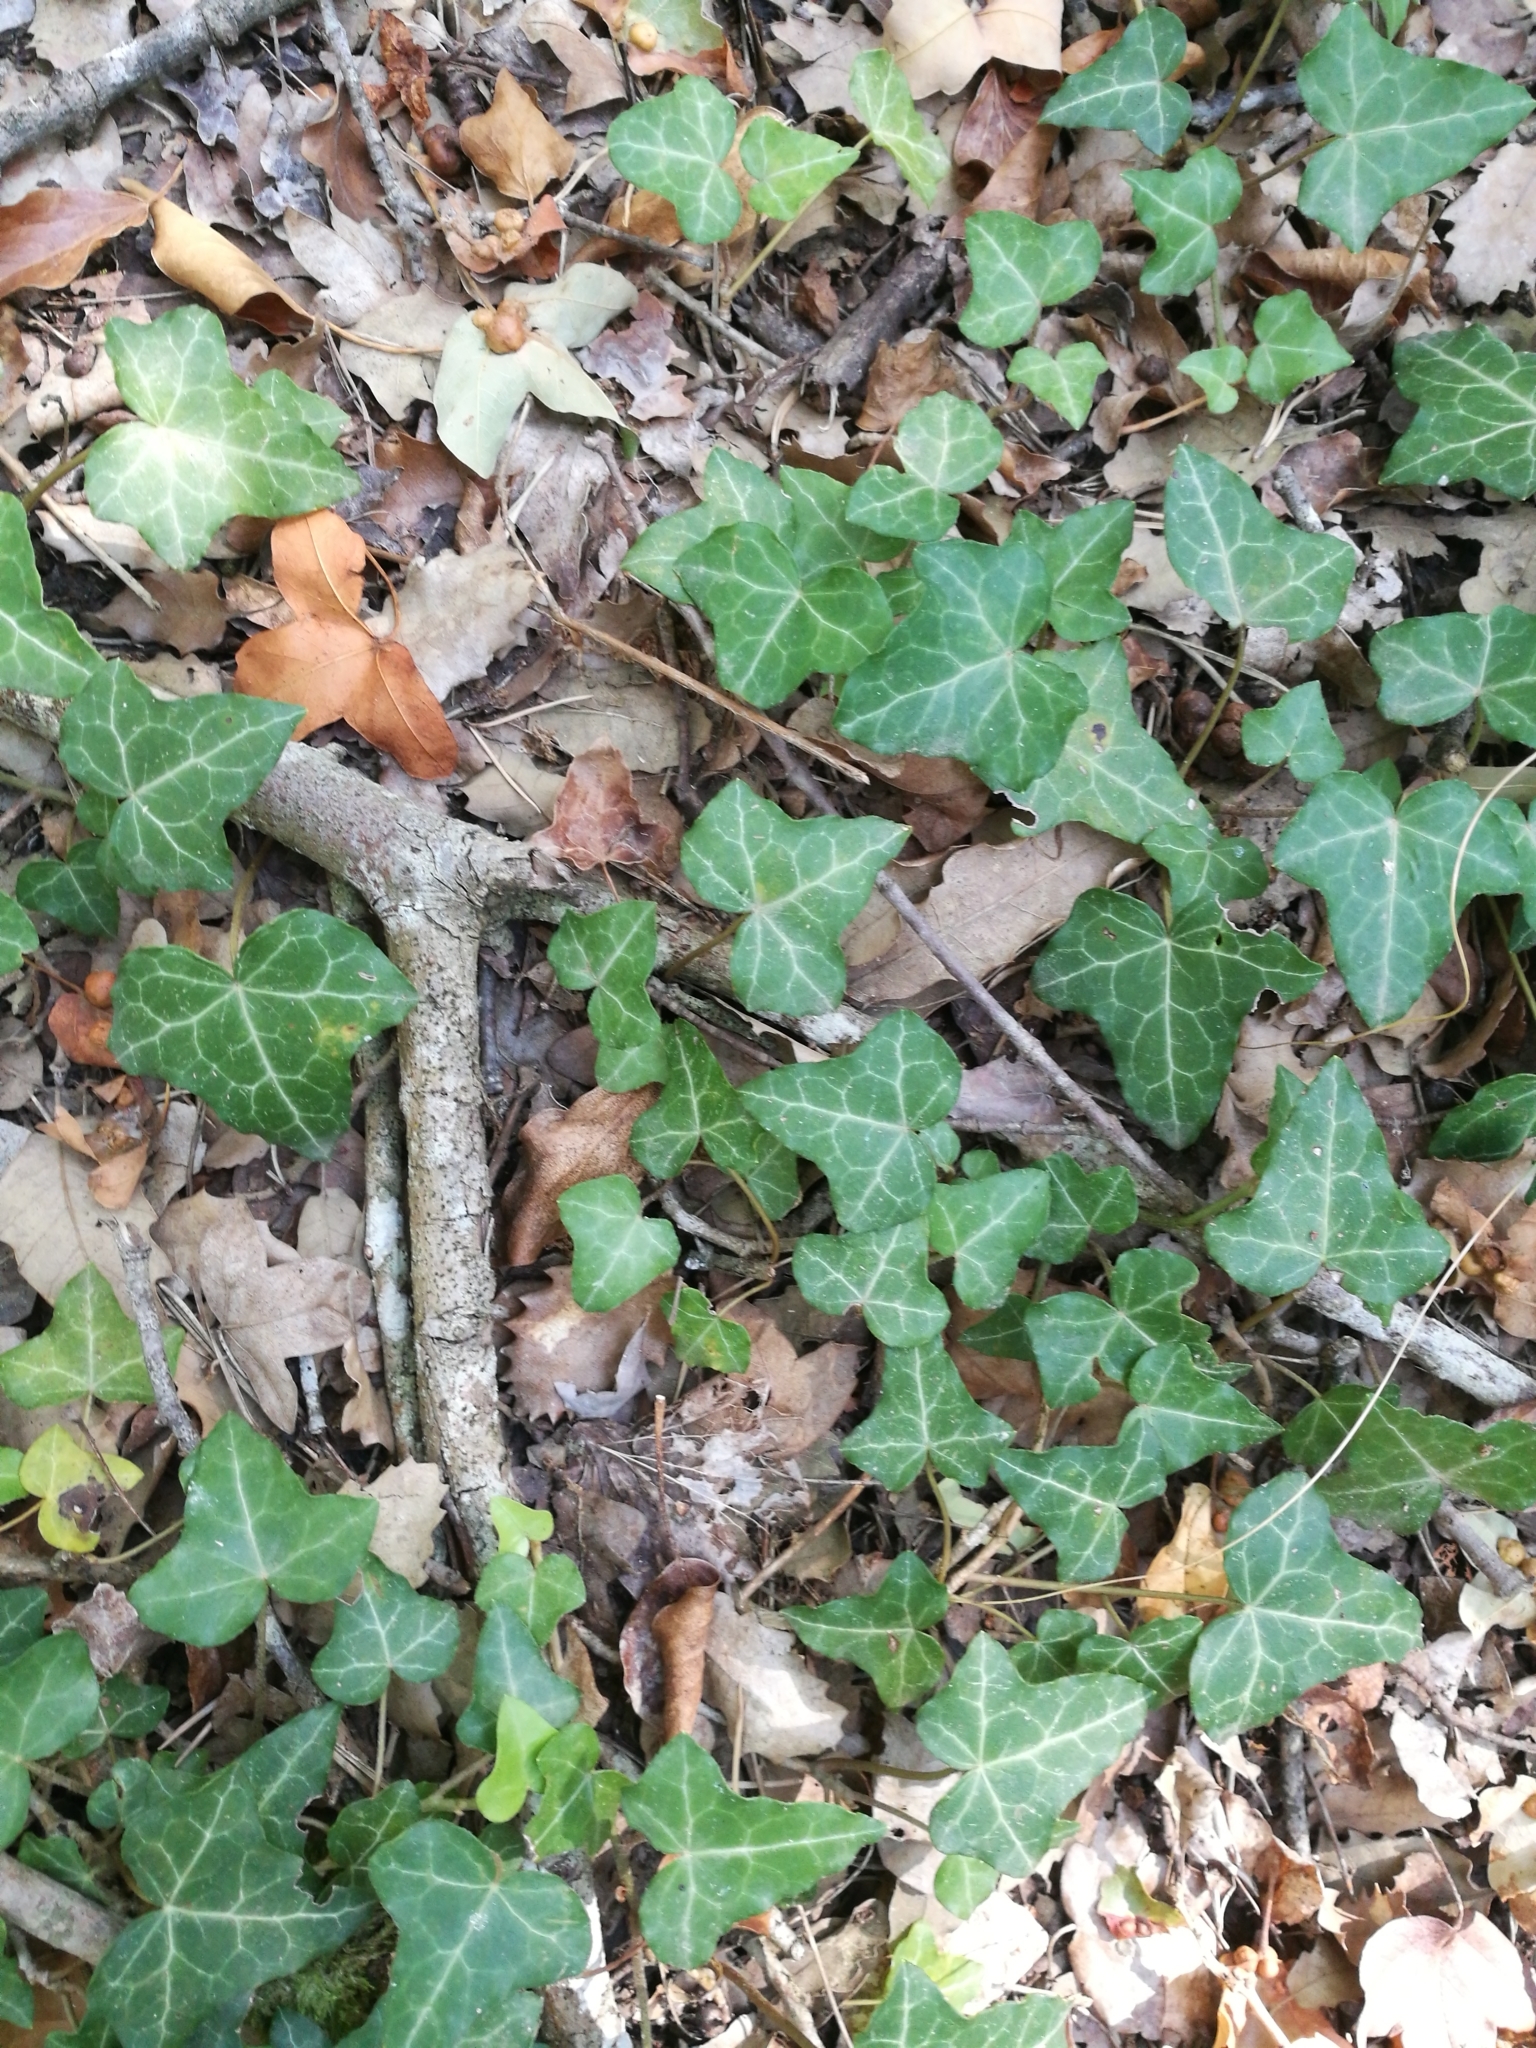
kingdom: Plantae
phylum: Tracheophyta
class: Magnoliopsida
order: Apiales
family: Araliaceae
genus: Hedera
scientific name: Hedera helix
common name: Ivy
